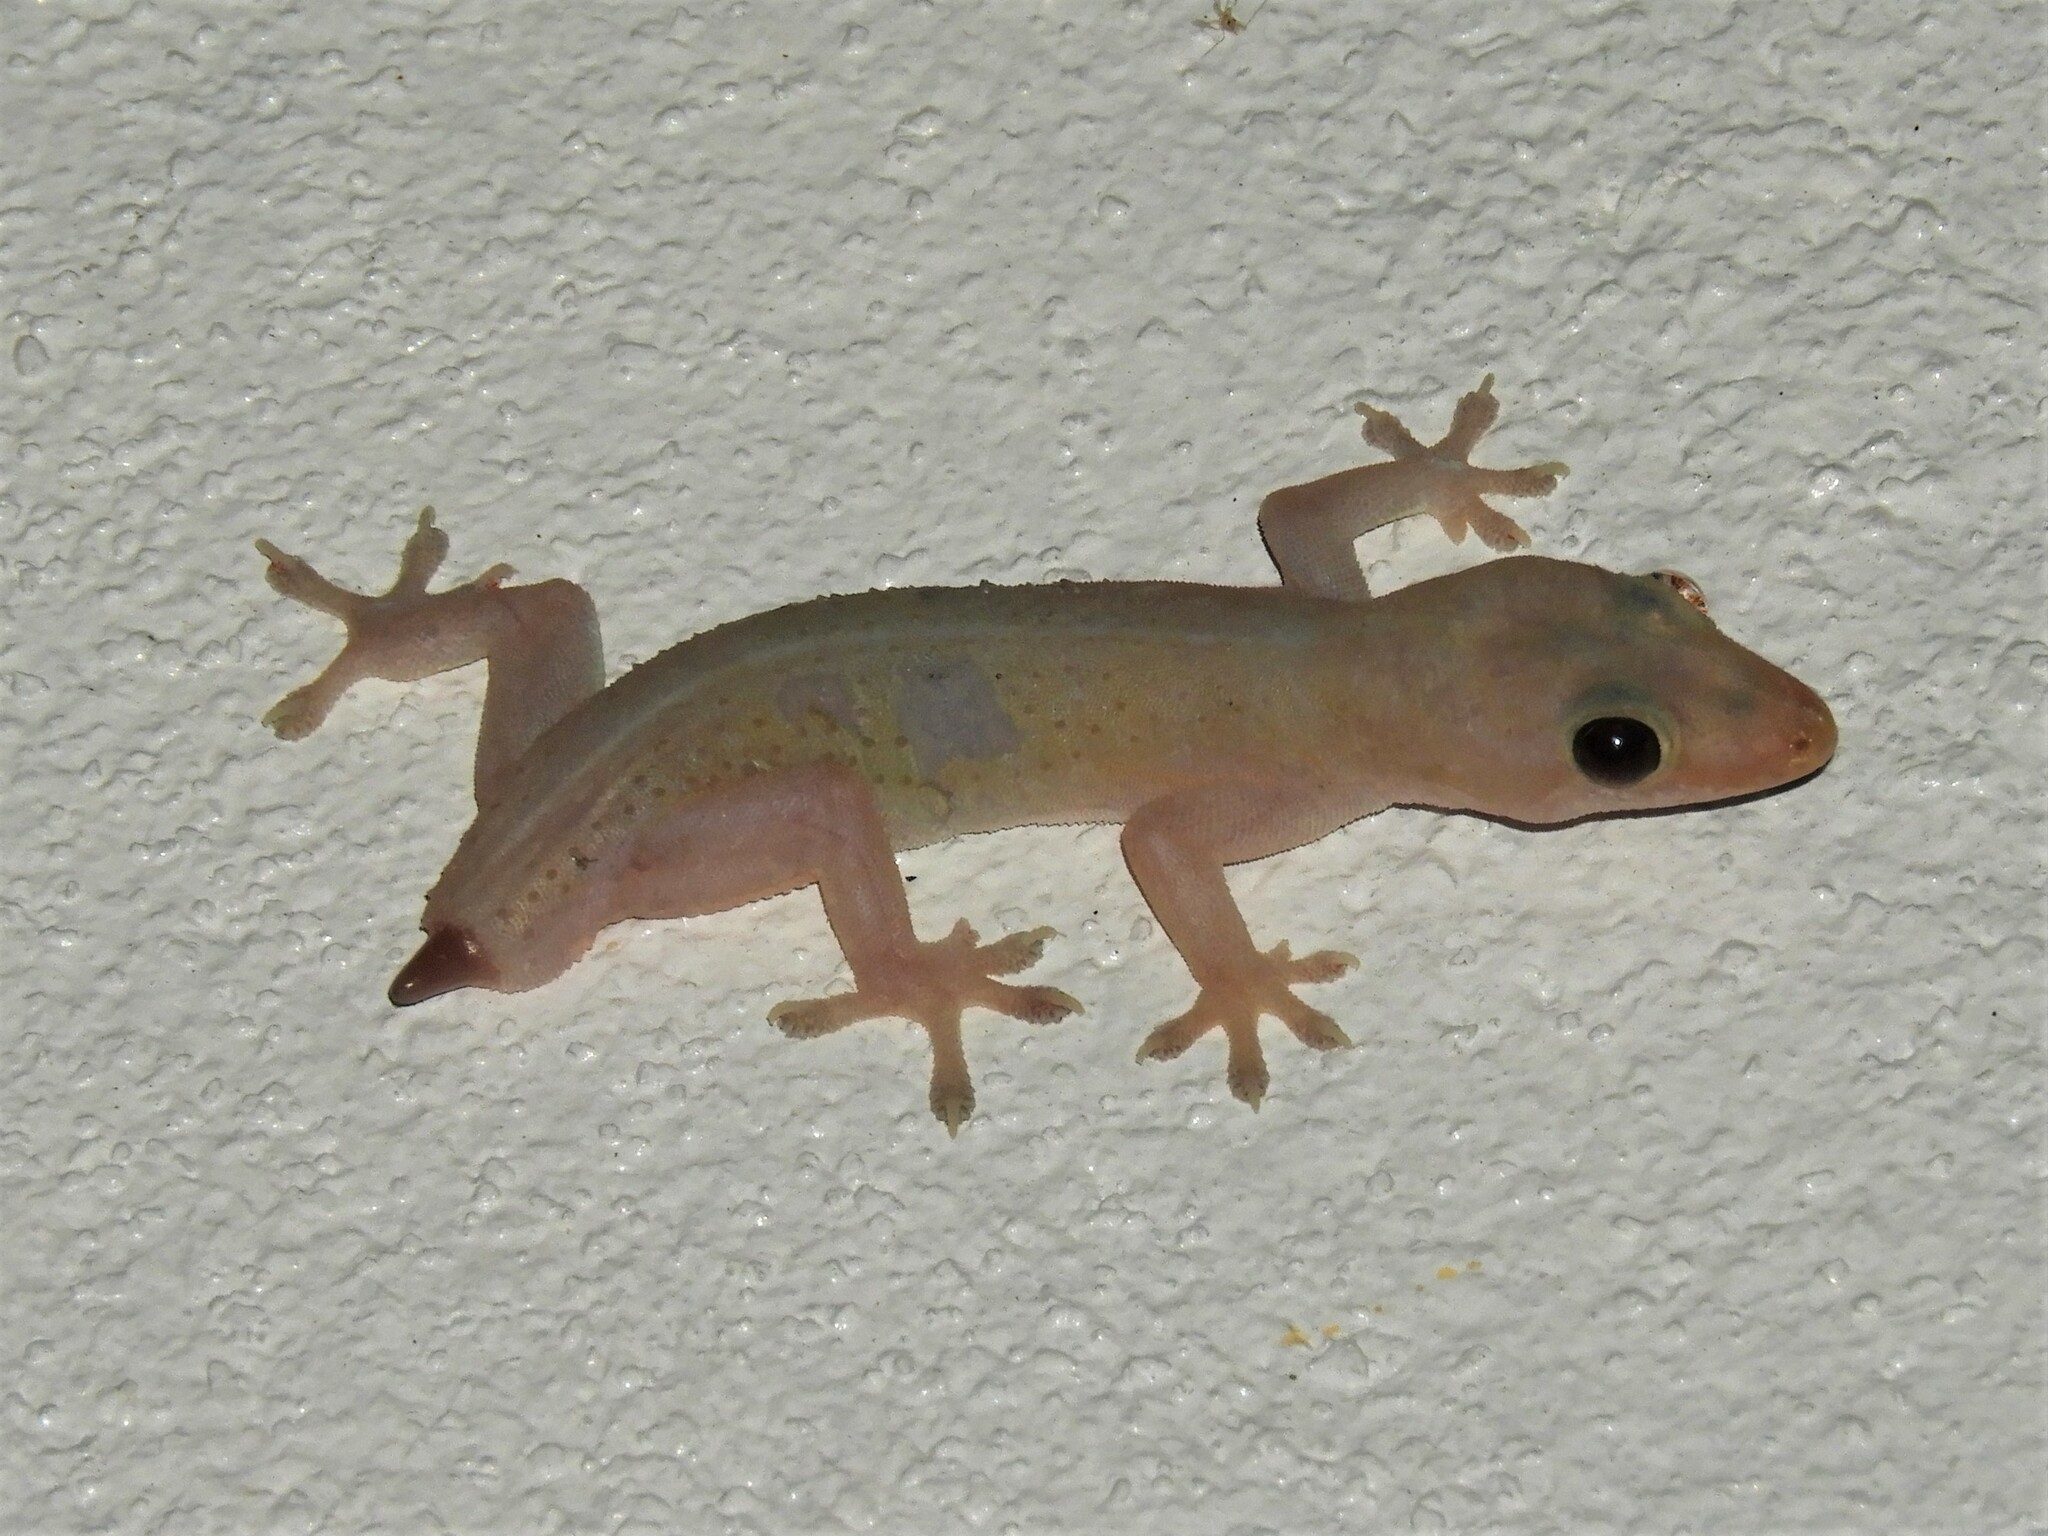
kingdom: Animalia
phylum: Chordata
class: Squamata
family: Gekkonidae
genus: Hemidactylus
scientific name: Hemidactylus frenatus
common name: Common house gecko
